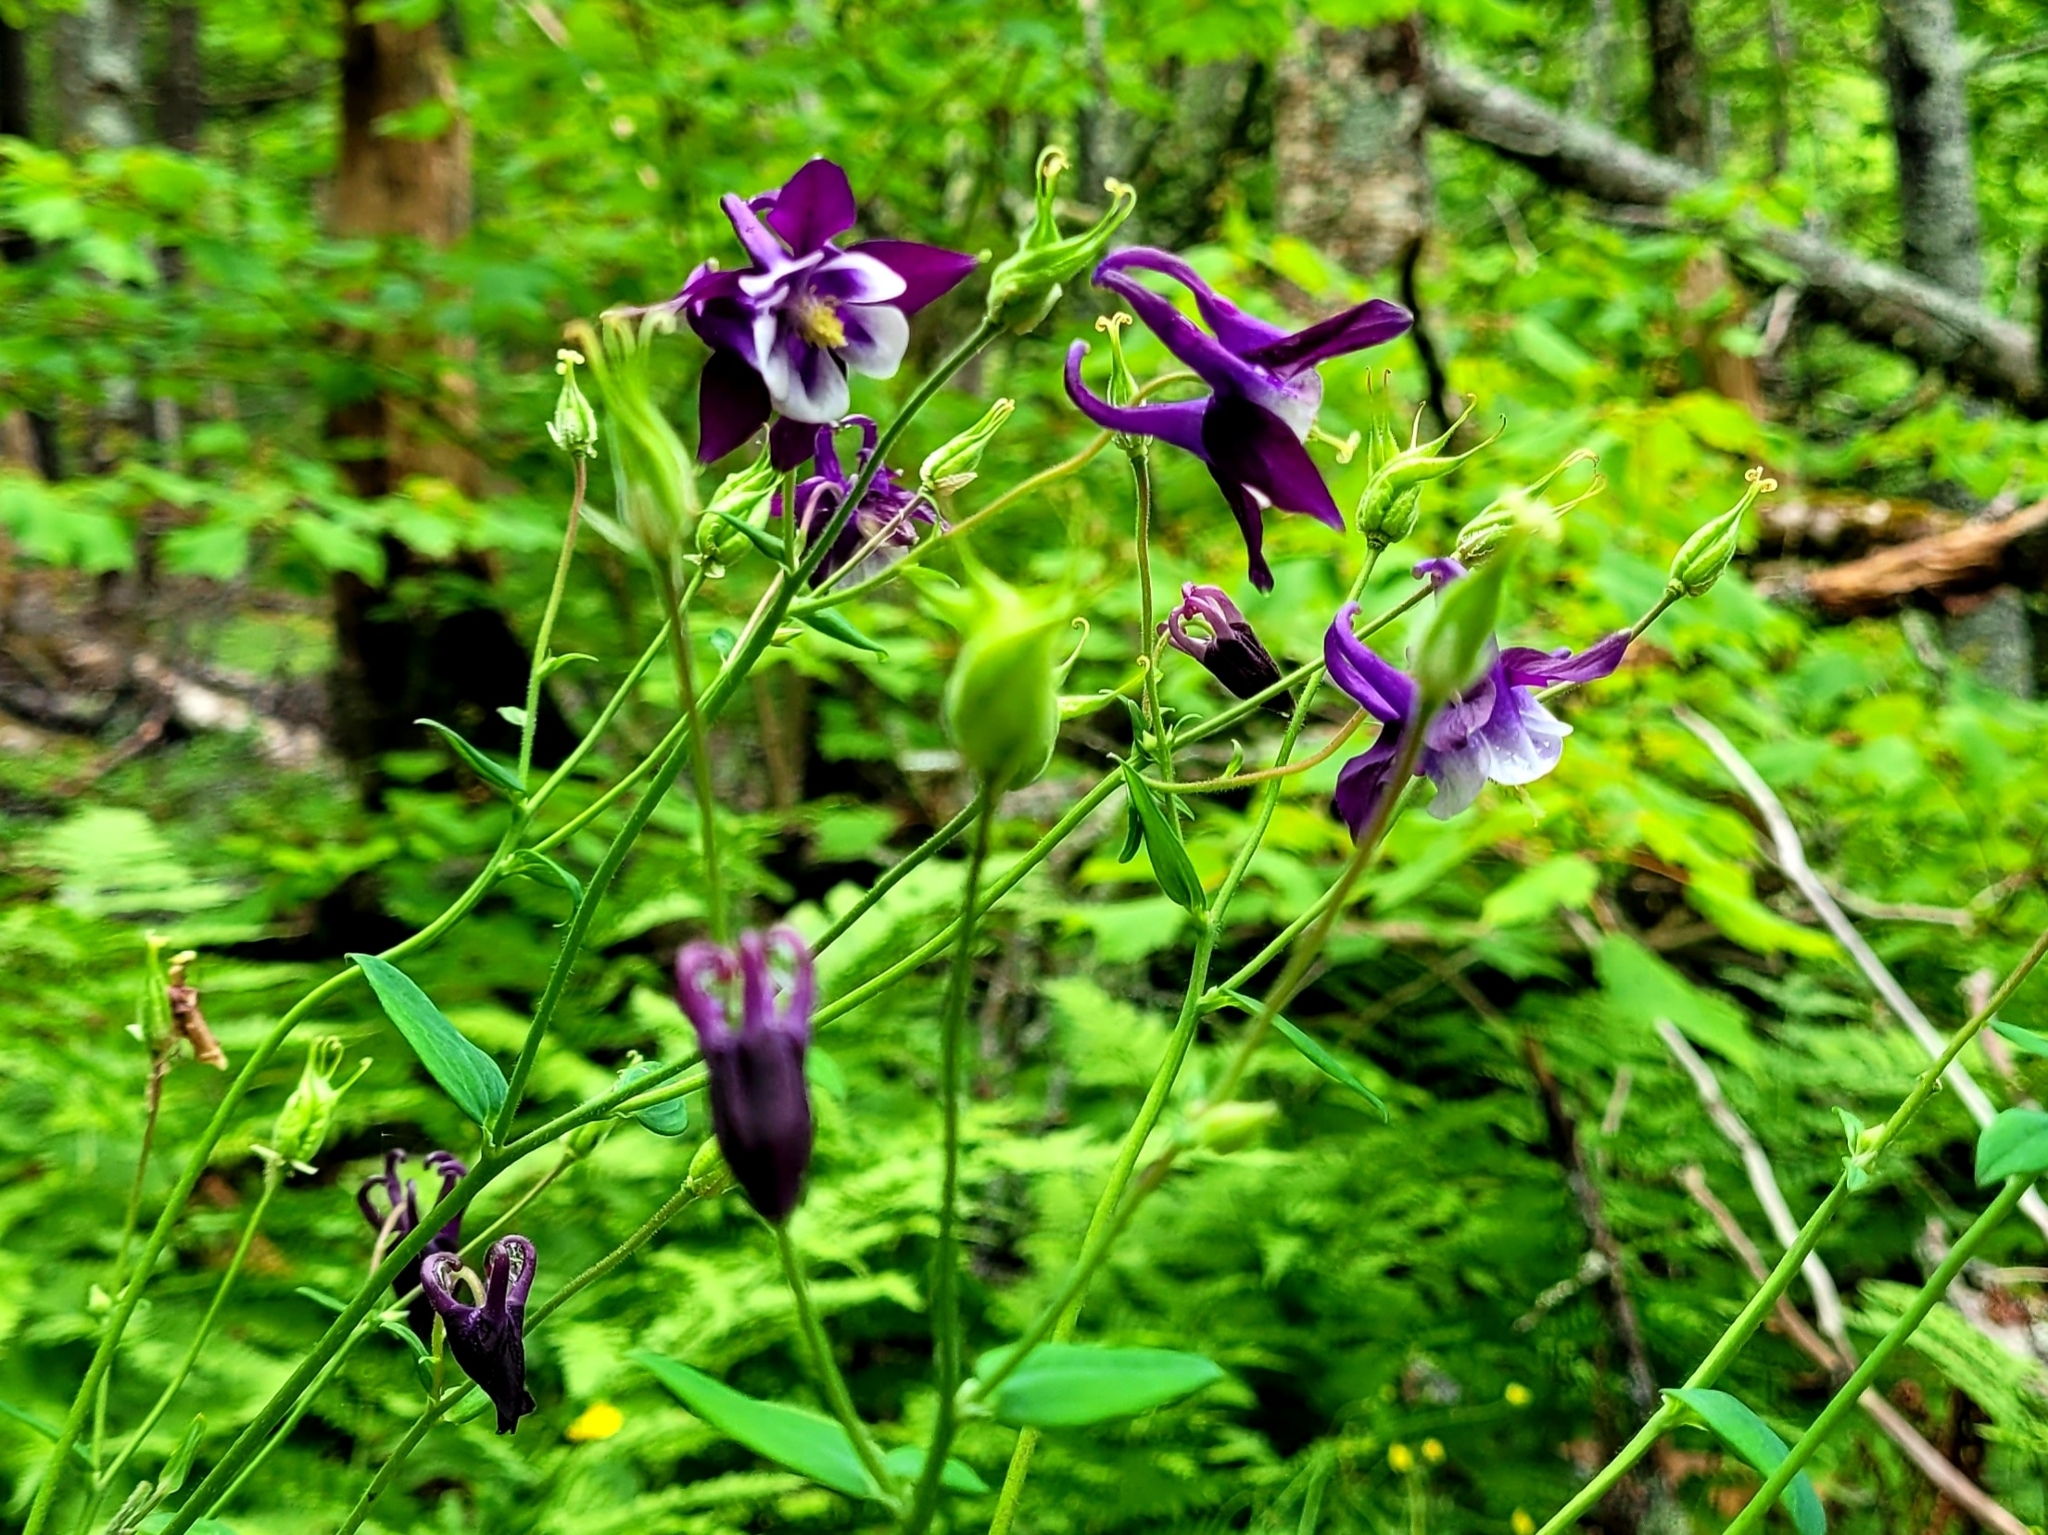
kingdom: Plantae
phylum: Tracheophyta
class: Magnoliopsida
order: Ranunculales
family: Ranunculaceae
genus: Aquilegia
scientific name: Aquilegia vulgaris
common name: Columbine
